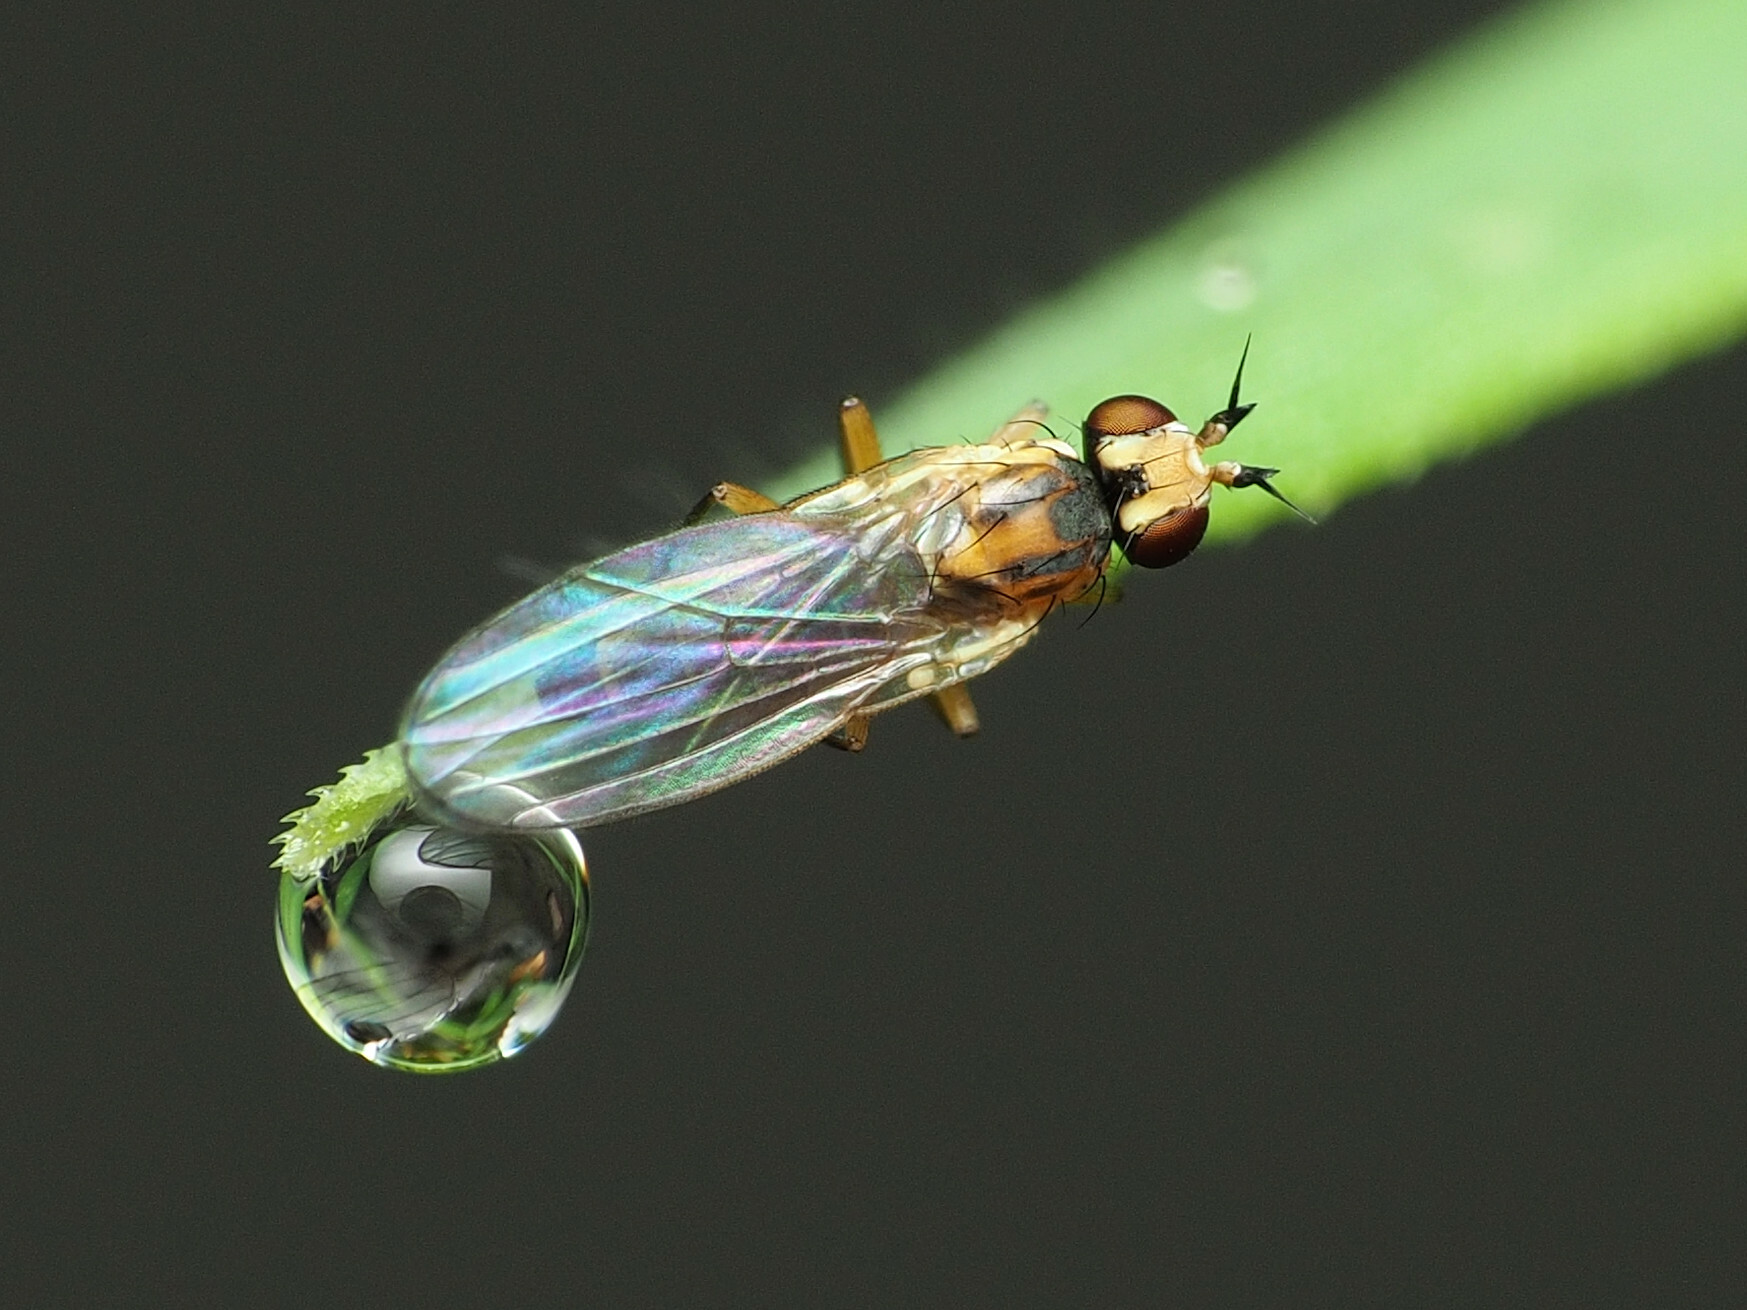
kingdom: Animalia
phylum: Arthropoda
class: Insecta
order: Diptera
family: Agromyzidae
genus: Cerodontha
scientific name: Cerodontha dorsalis
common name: Grass sheathminer fly
